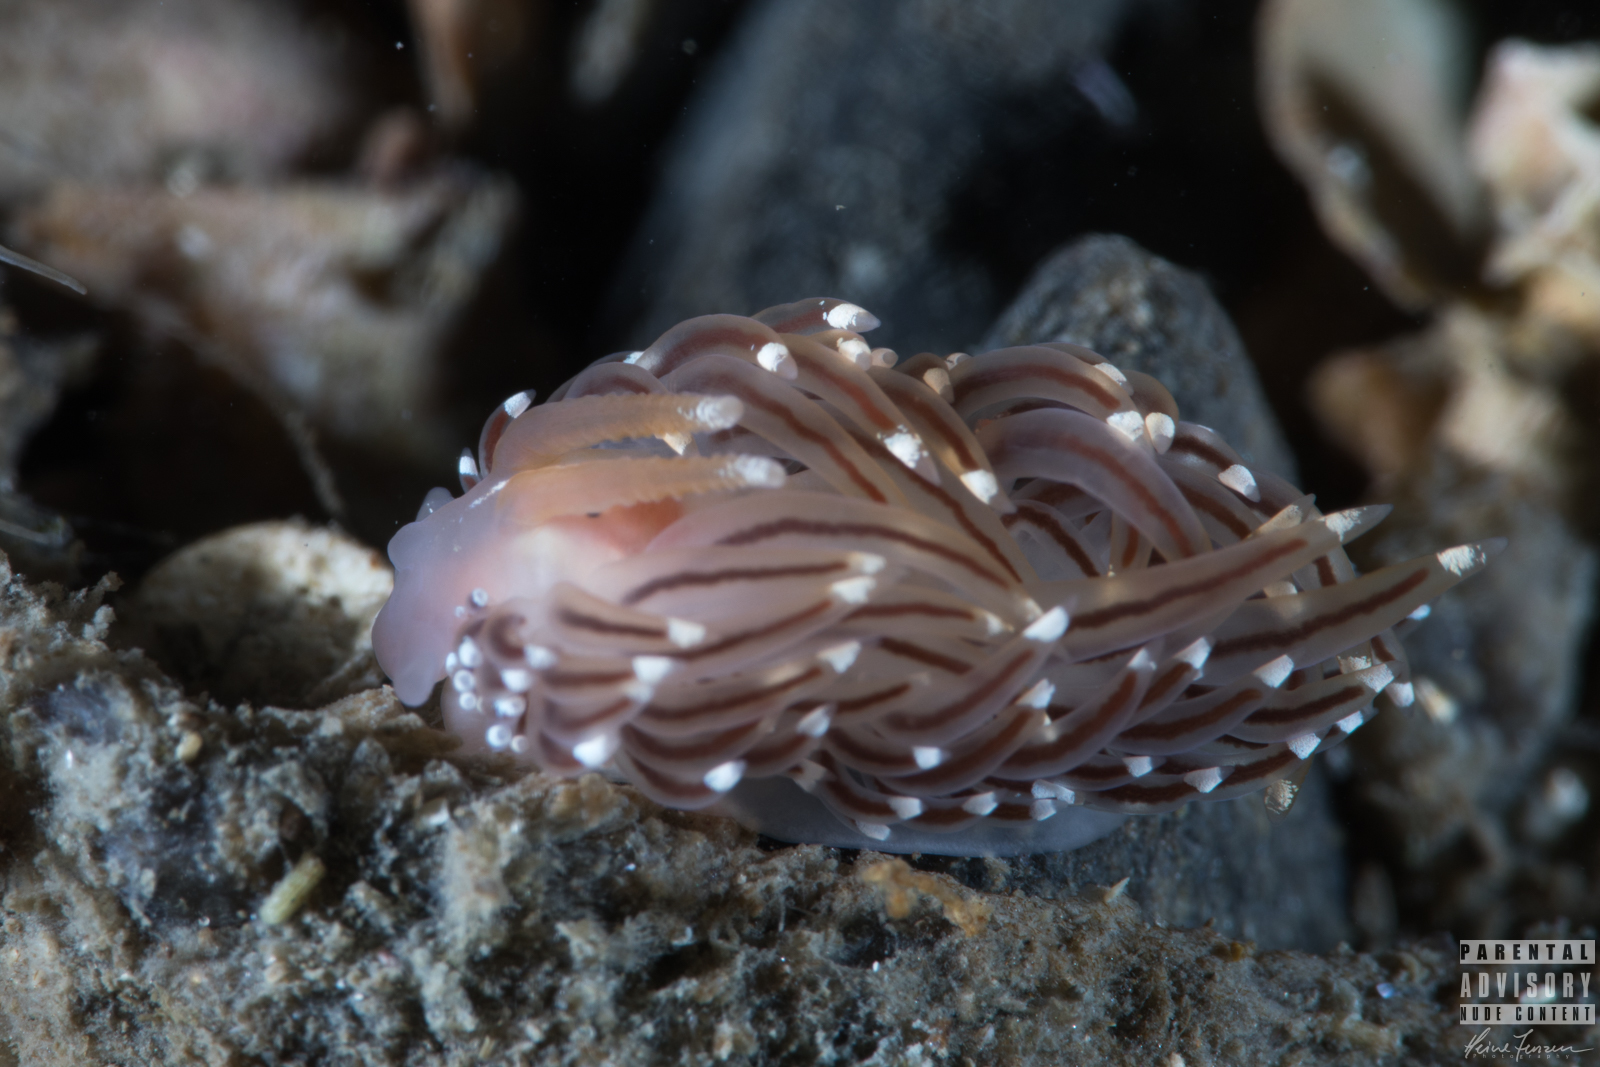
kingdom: Animalia
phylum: Mollusca
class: Gastropoda
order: Nudibranchia
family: Facelinidae
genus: Facelina
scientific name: Facelina bostoniensis
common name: Boston facelina
